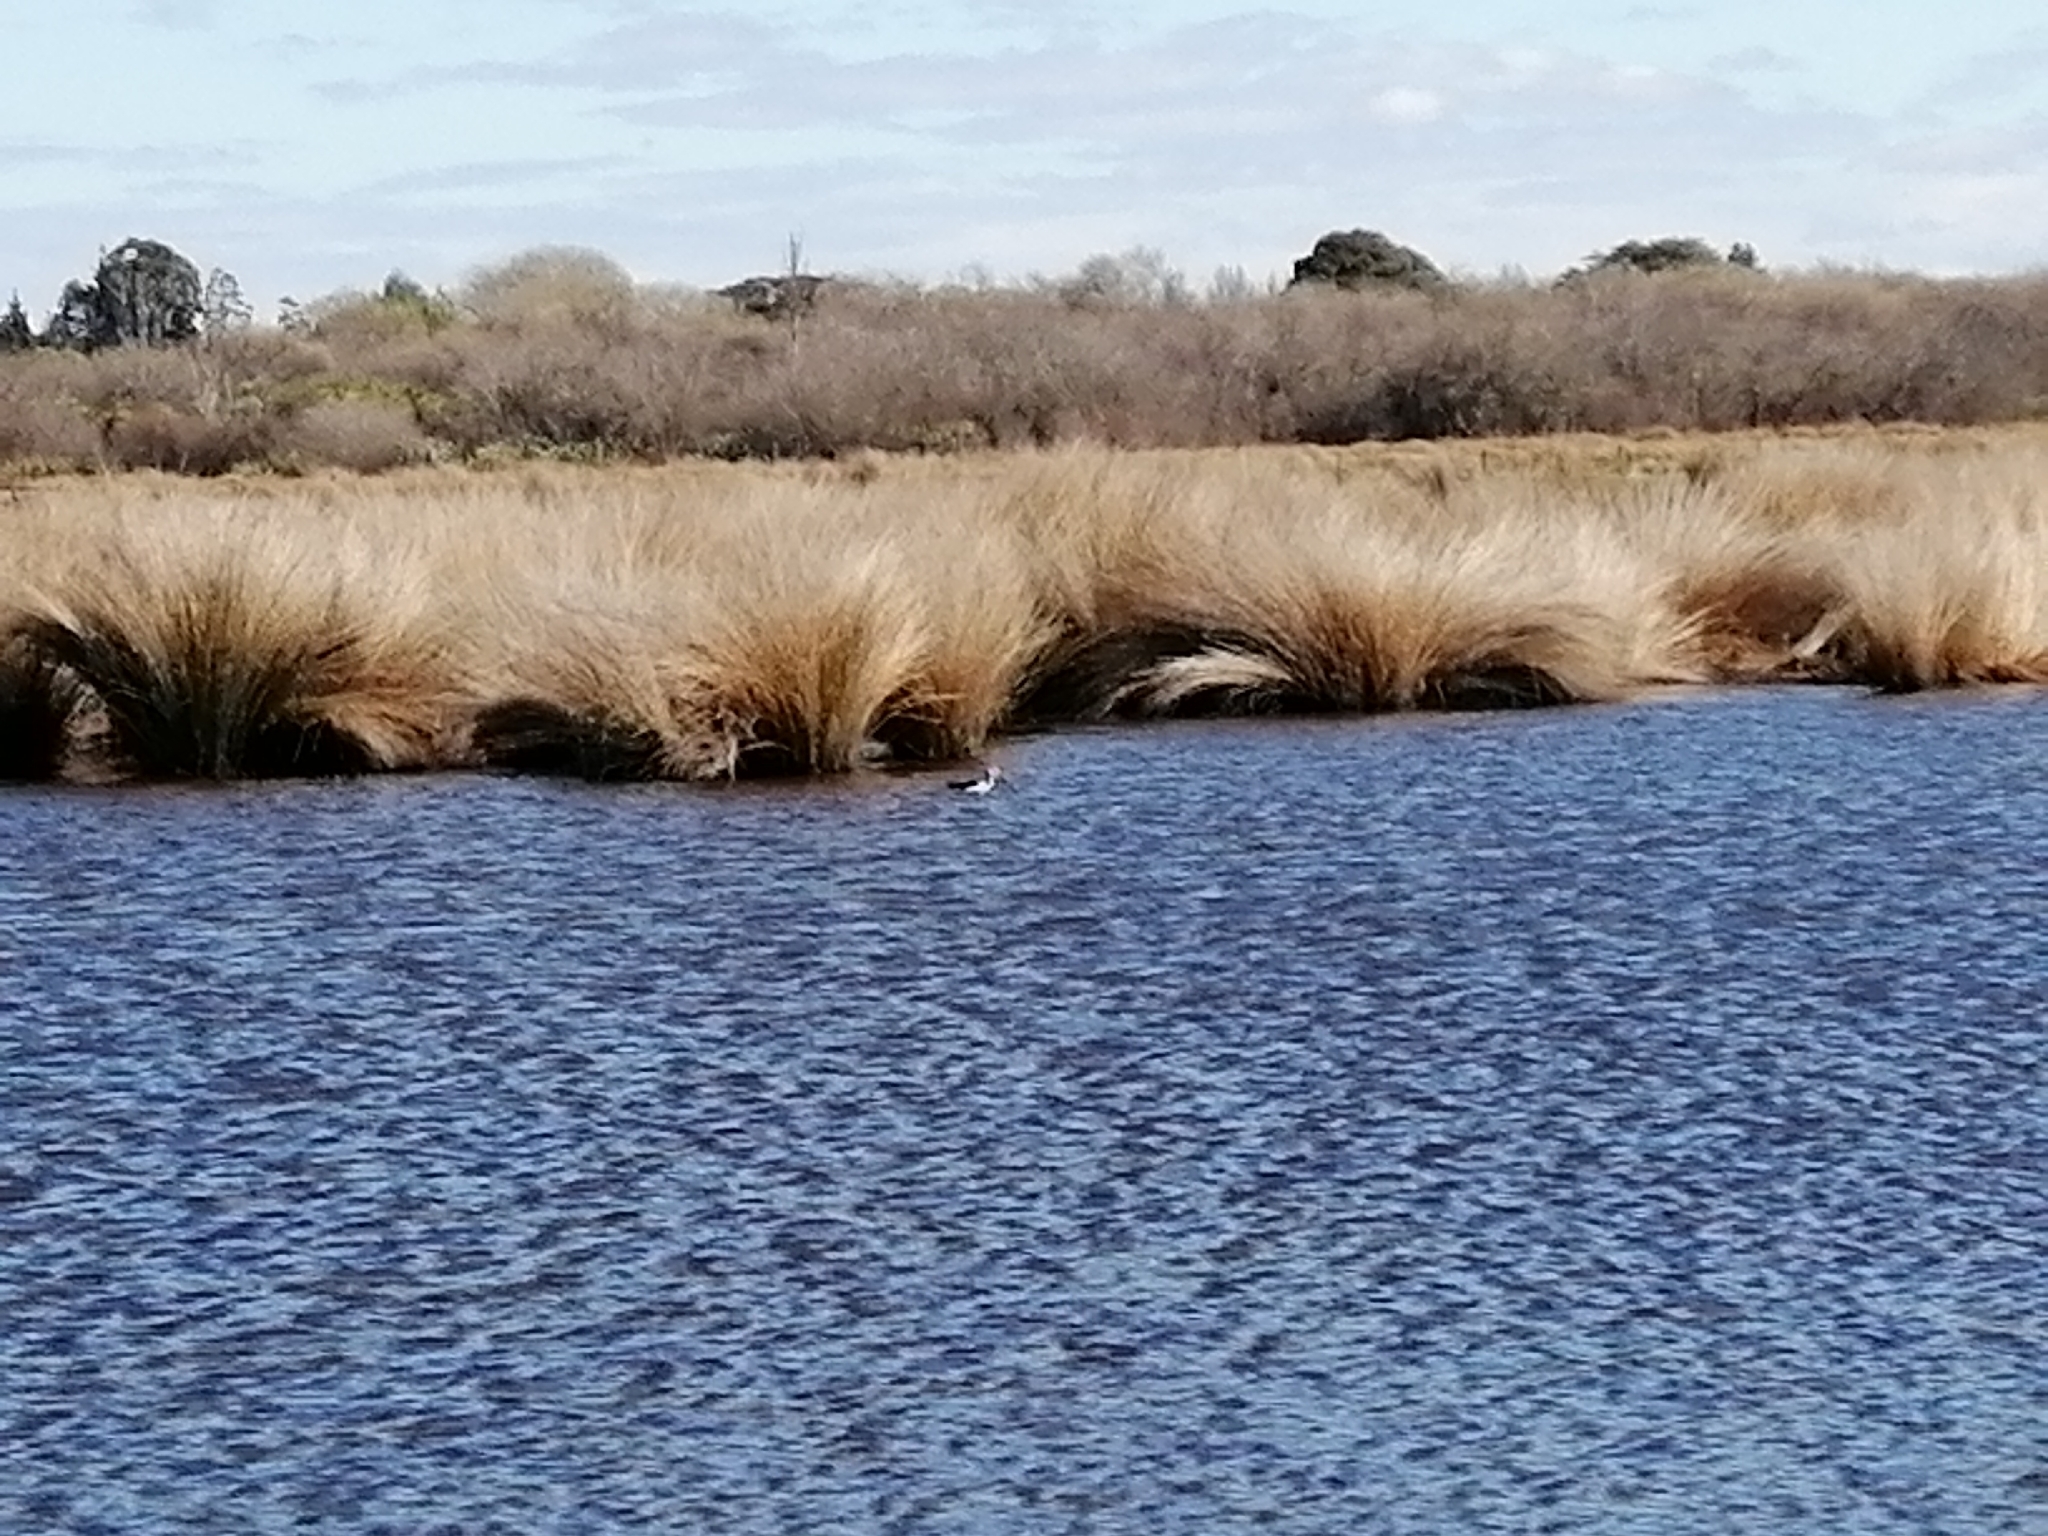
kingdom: Animalia
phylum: Chordata
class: Aves
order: Charadriiformes
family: Recurvirostridae
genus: Himantopus
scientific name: Himantopus leucocephalus
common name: White-headed stilt
